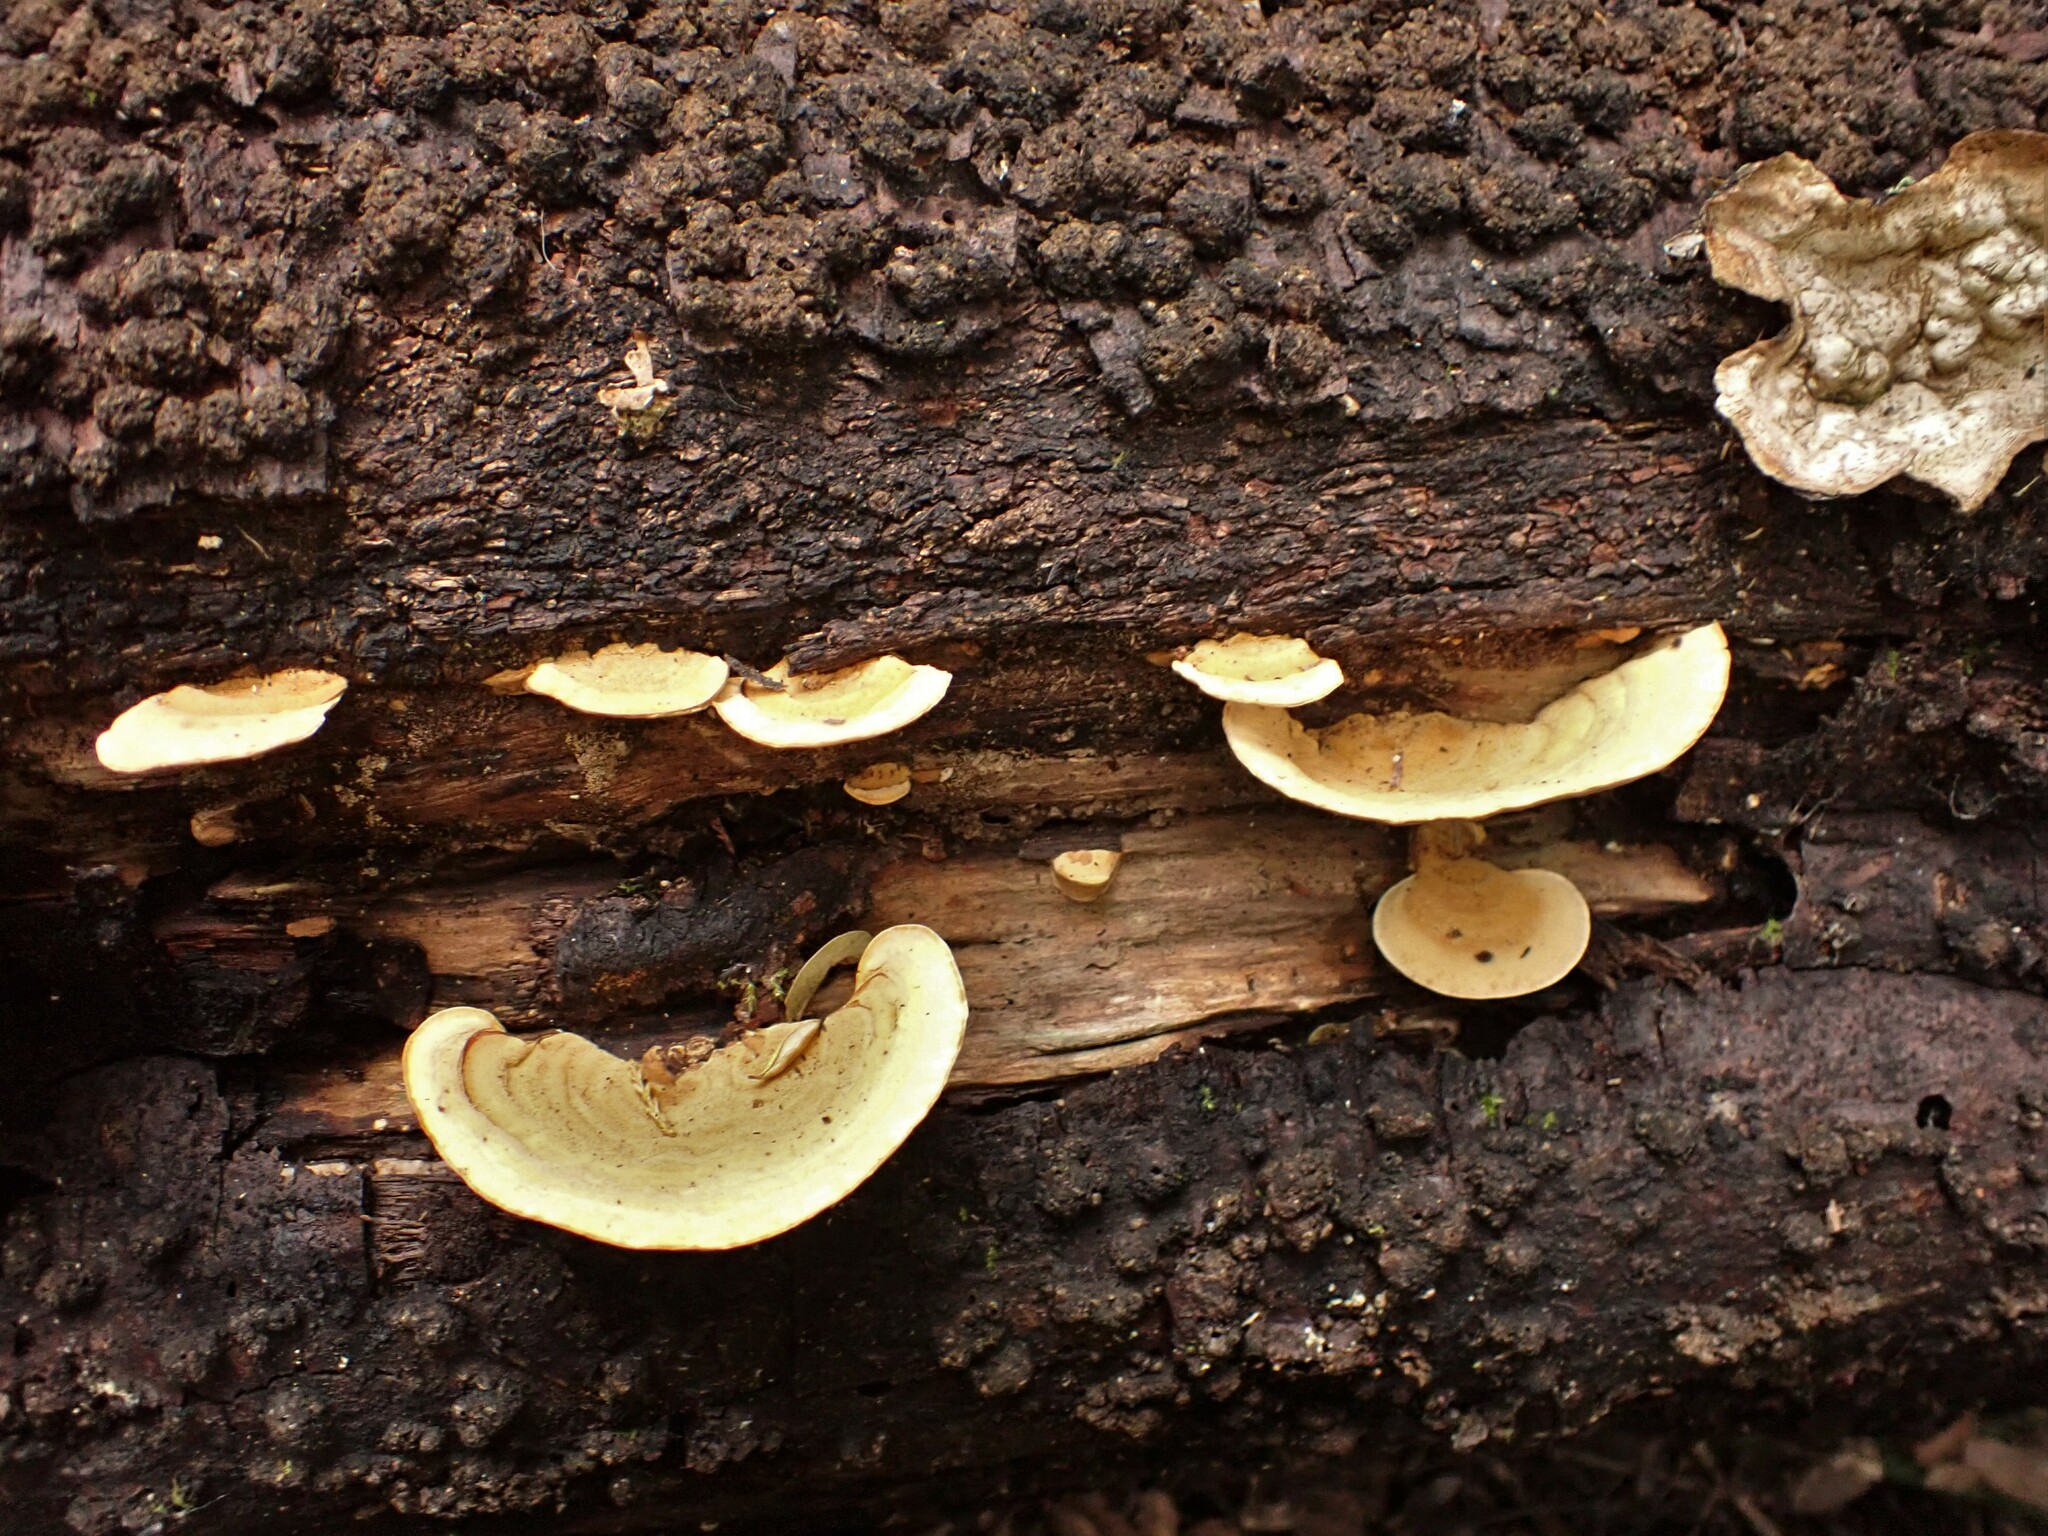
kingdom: Fungi
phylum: Basidiomycota
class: Agaricomycetes
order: Russulales
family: Stereaceae
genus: Stereum
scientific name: Stereum versicolor
